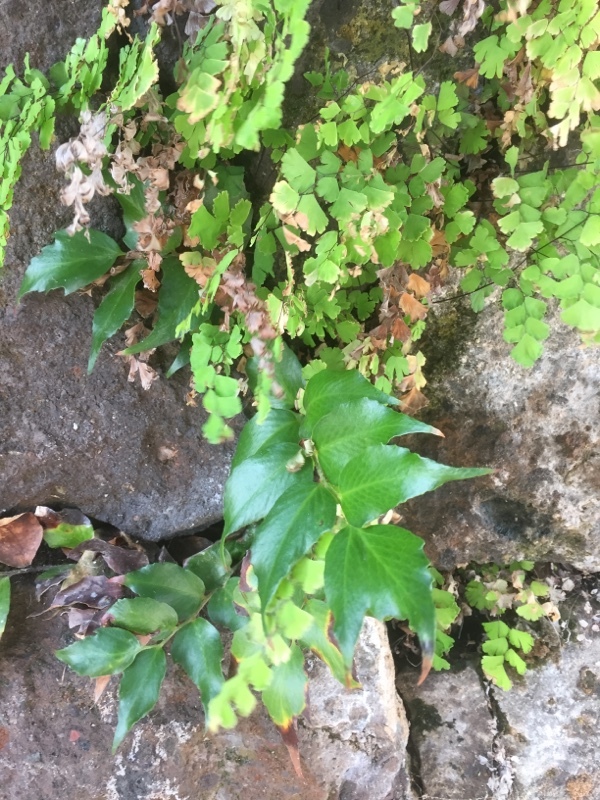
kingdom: Plantae
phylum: Tracheophyta
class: Polypodiopsida
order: Polypodiales
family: Pteridaceae
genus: Adiantum
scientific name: Adiantum capillus-veneris
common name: Maidenhair fern
